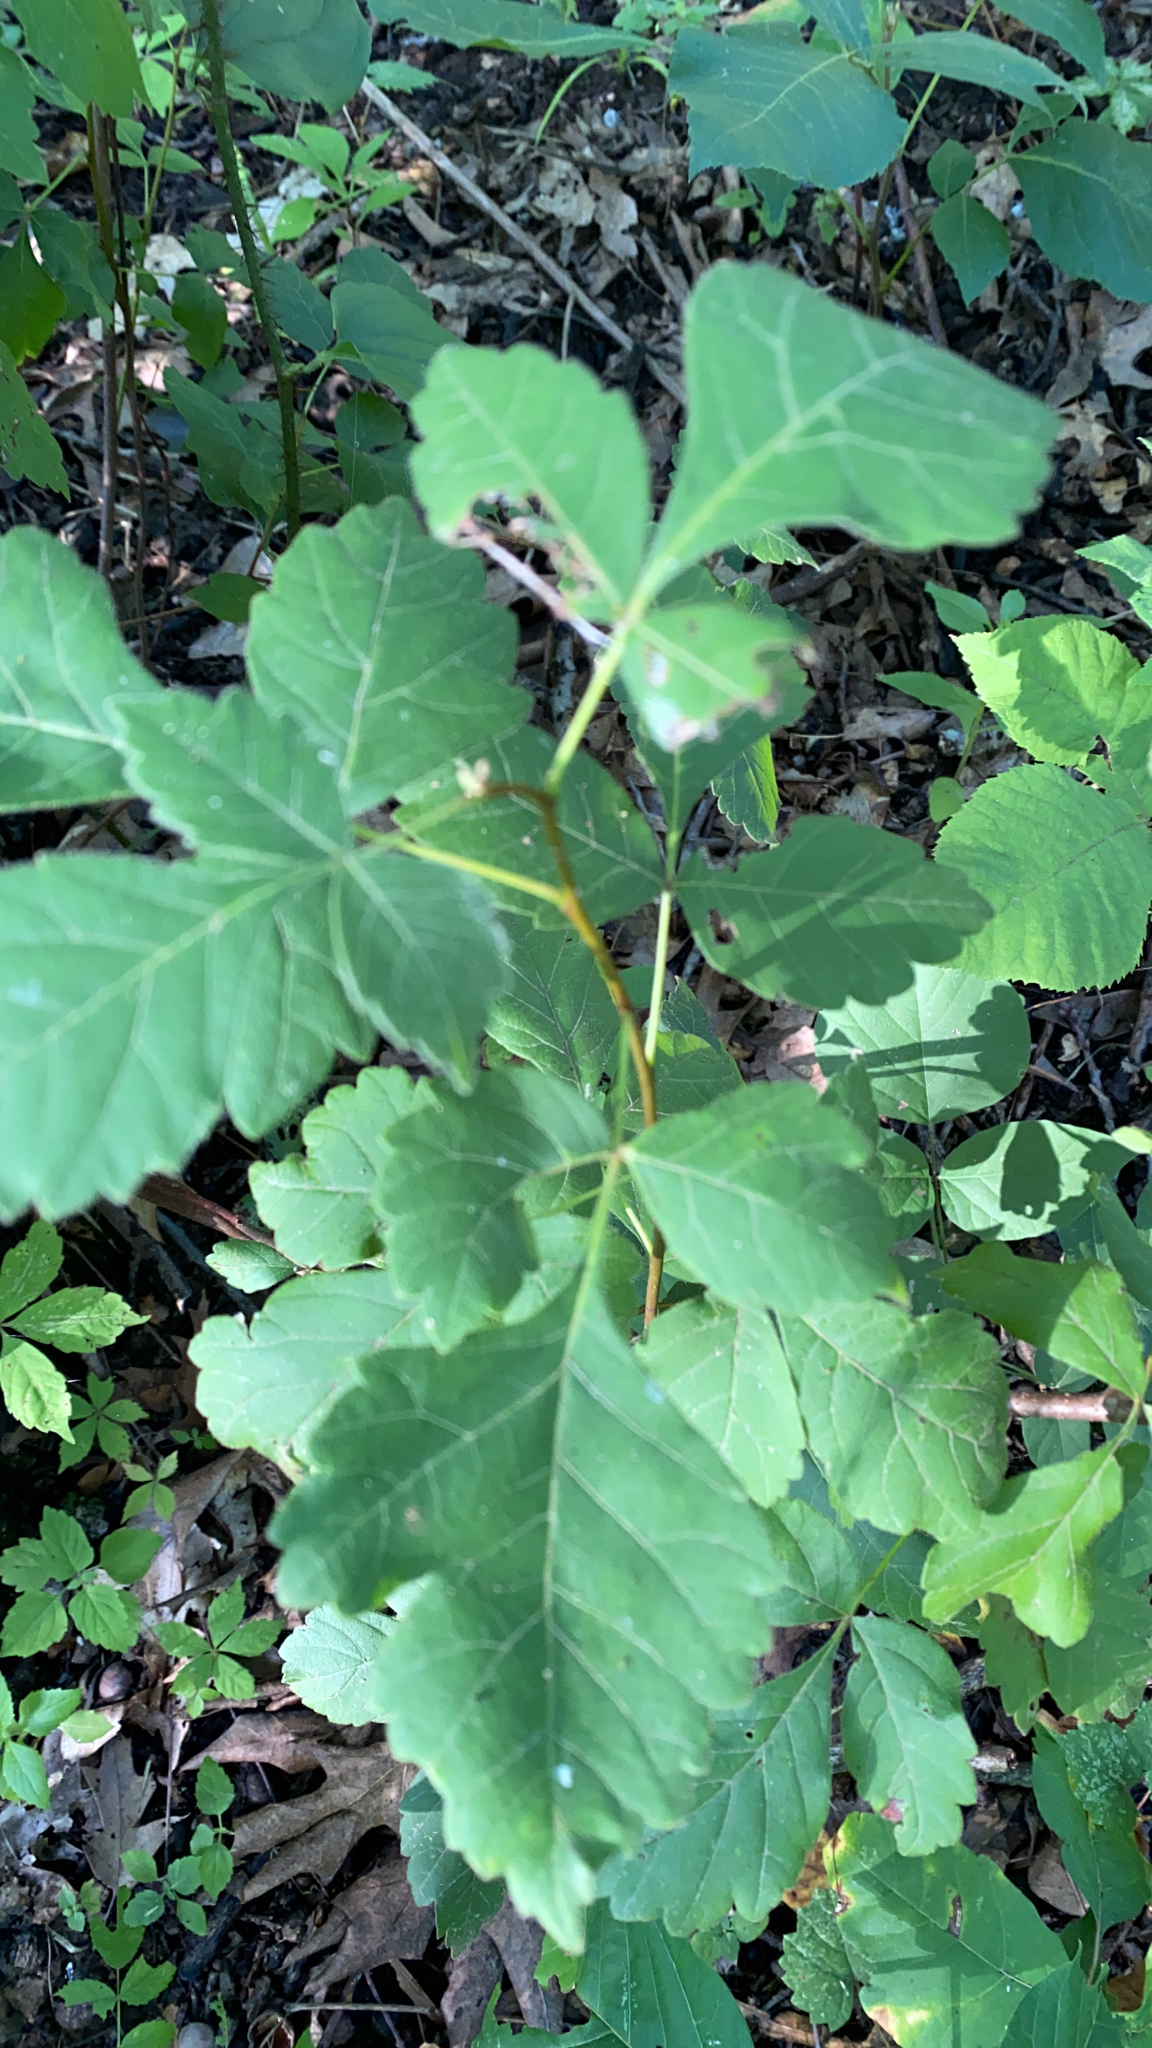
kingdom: Plantae
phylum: Tracheophyta
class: Magnoliopsida
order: Sapindales
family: Anacardiaceae
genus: Rhus
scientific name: Rhus aromatica
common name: Aromatic sumac
